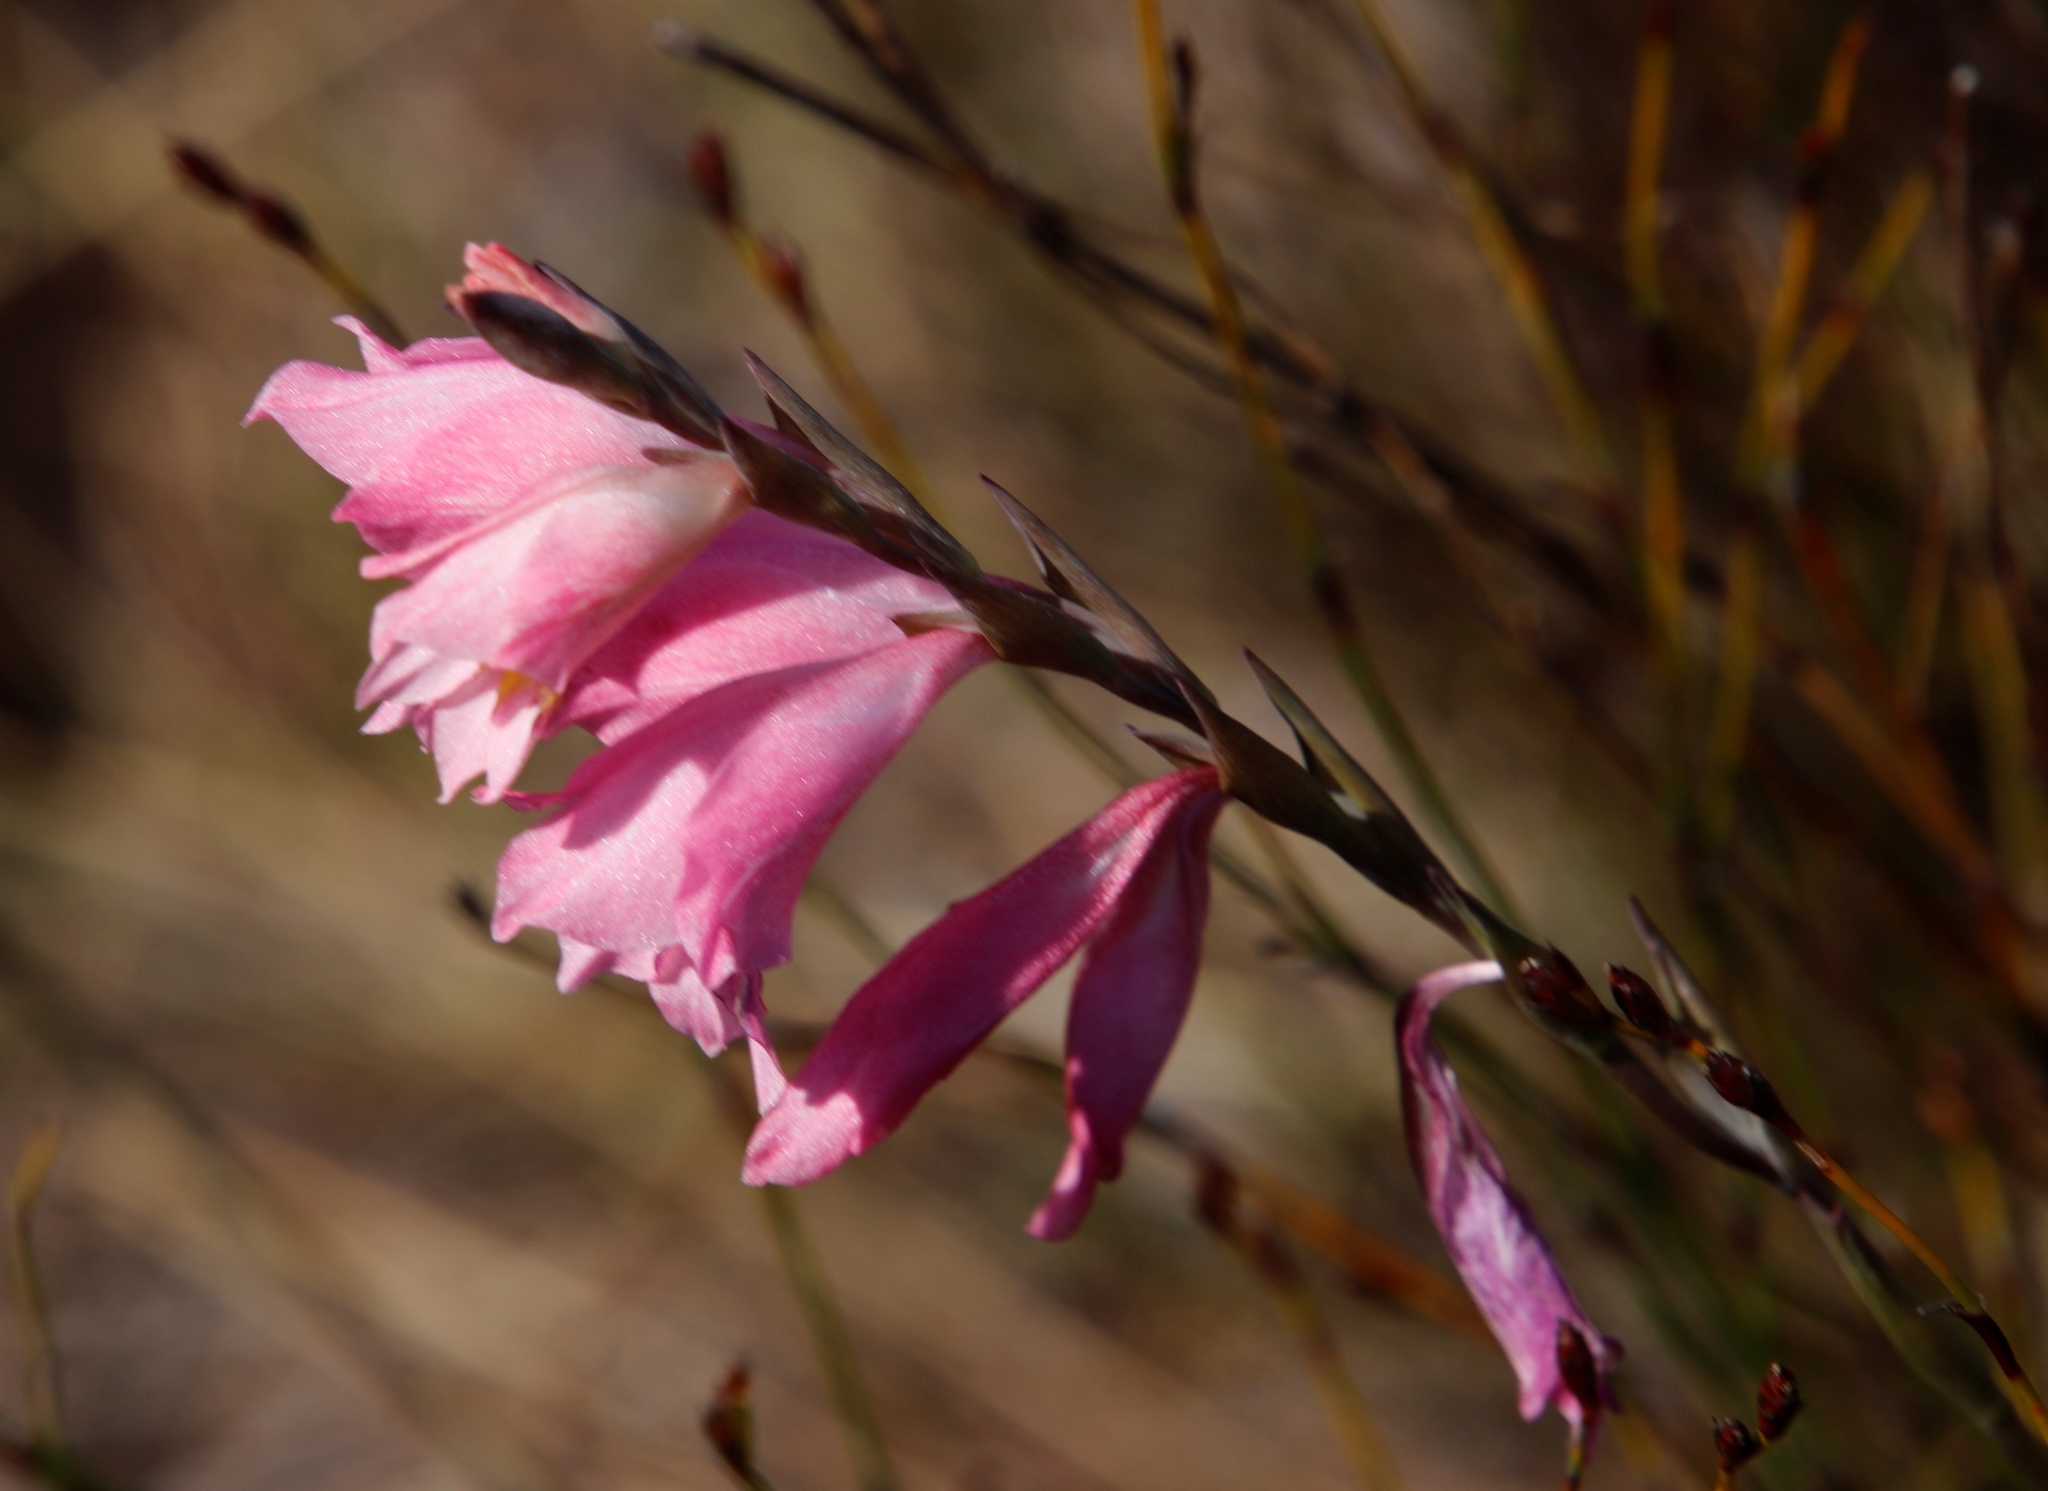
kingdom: Plantae
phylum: Tracheophyta
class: Liliopsida
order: Asparagales
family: Iridaceae
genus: Gladiolus
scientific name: Gladiolus brevifolius
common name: March pypie
